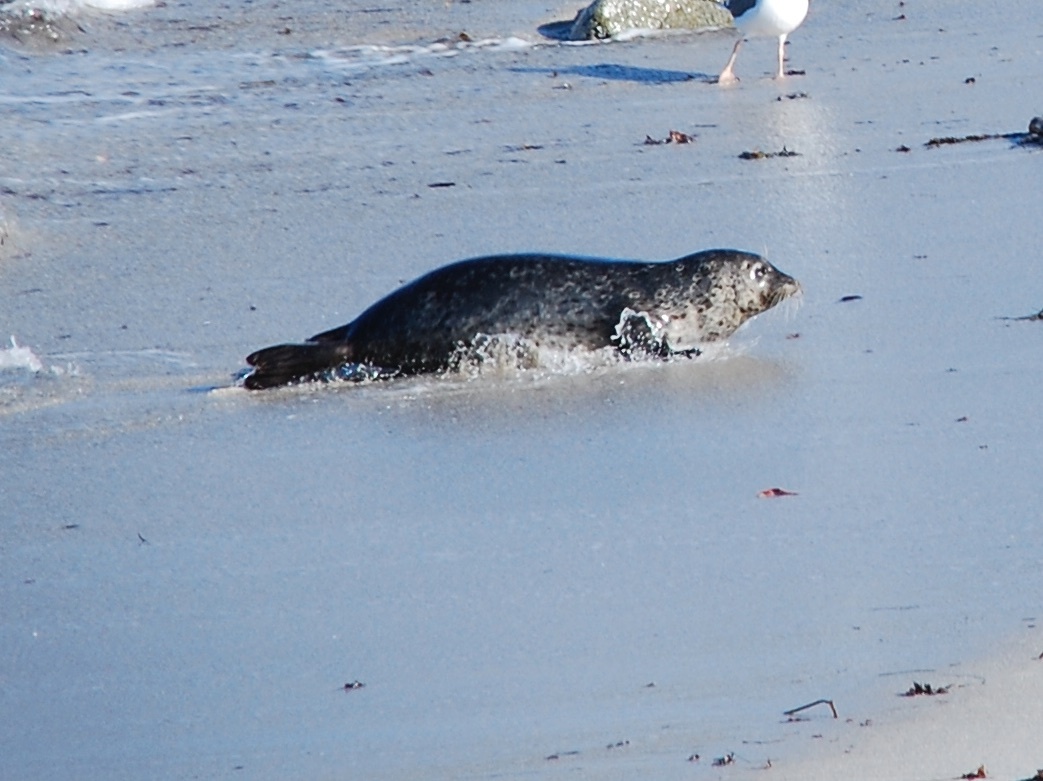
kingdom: Animalia
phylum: Chordata
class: Mammalia
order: Carnivora
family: Phocidae
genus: Phoca
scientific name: Phoca vitulina
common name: Harbor seal
